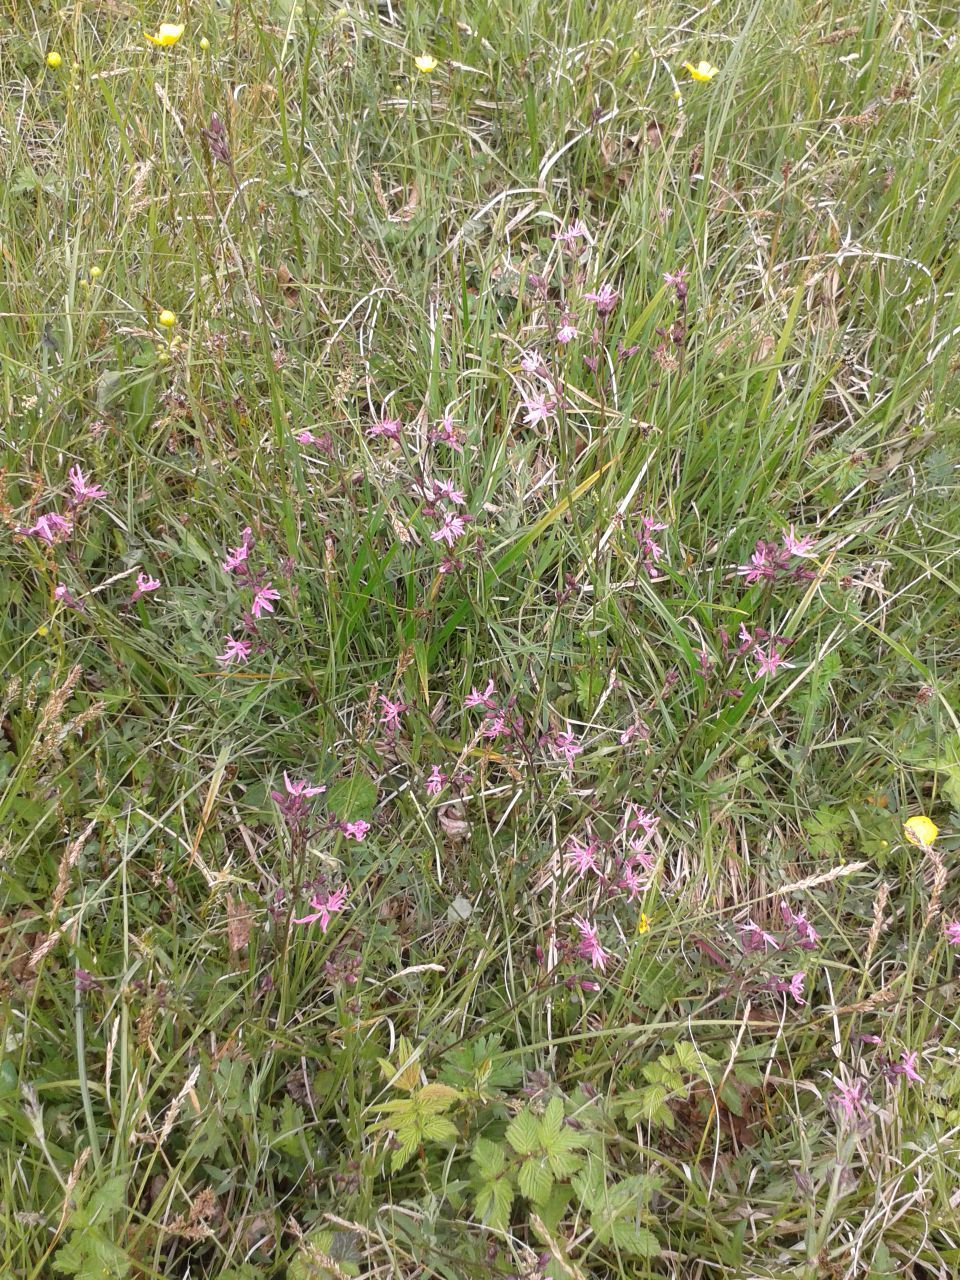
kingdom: Plantae
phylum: Tracheophyta
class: Magnoliopsida
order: Caryophyllales
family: Caryophyllaceae
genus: Silene
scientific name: Silene flos-cuculi
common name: Ragged-robin
